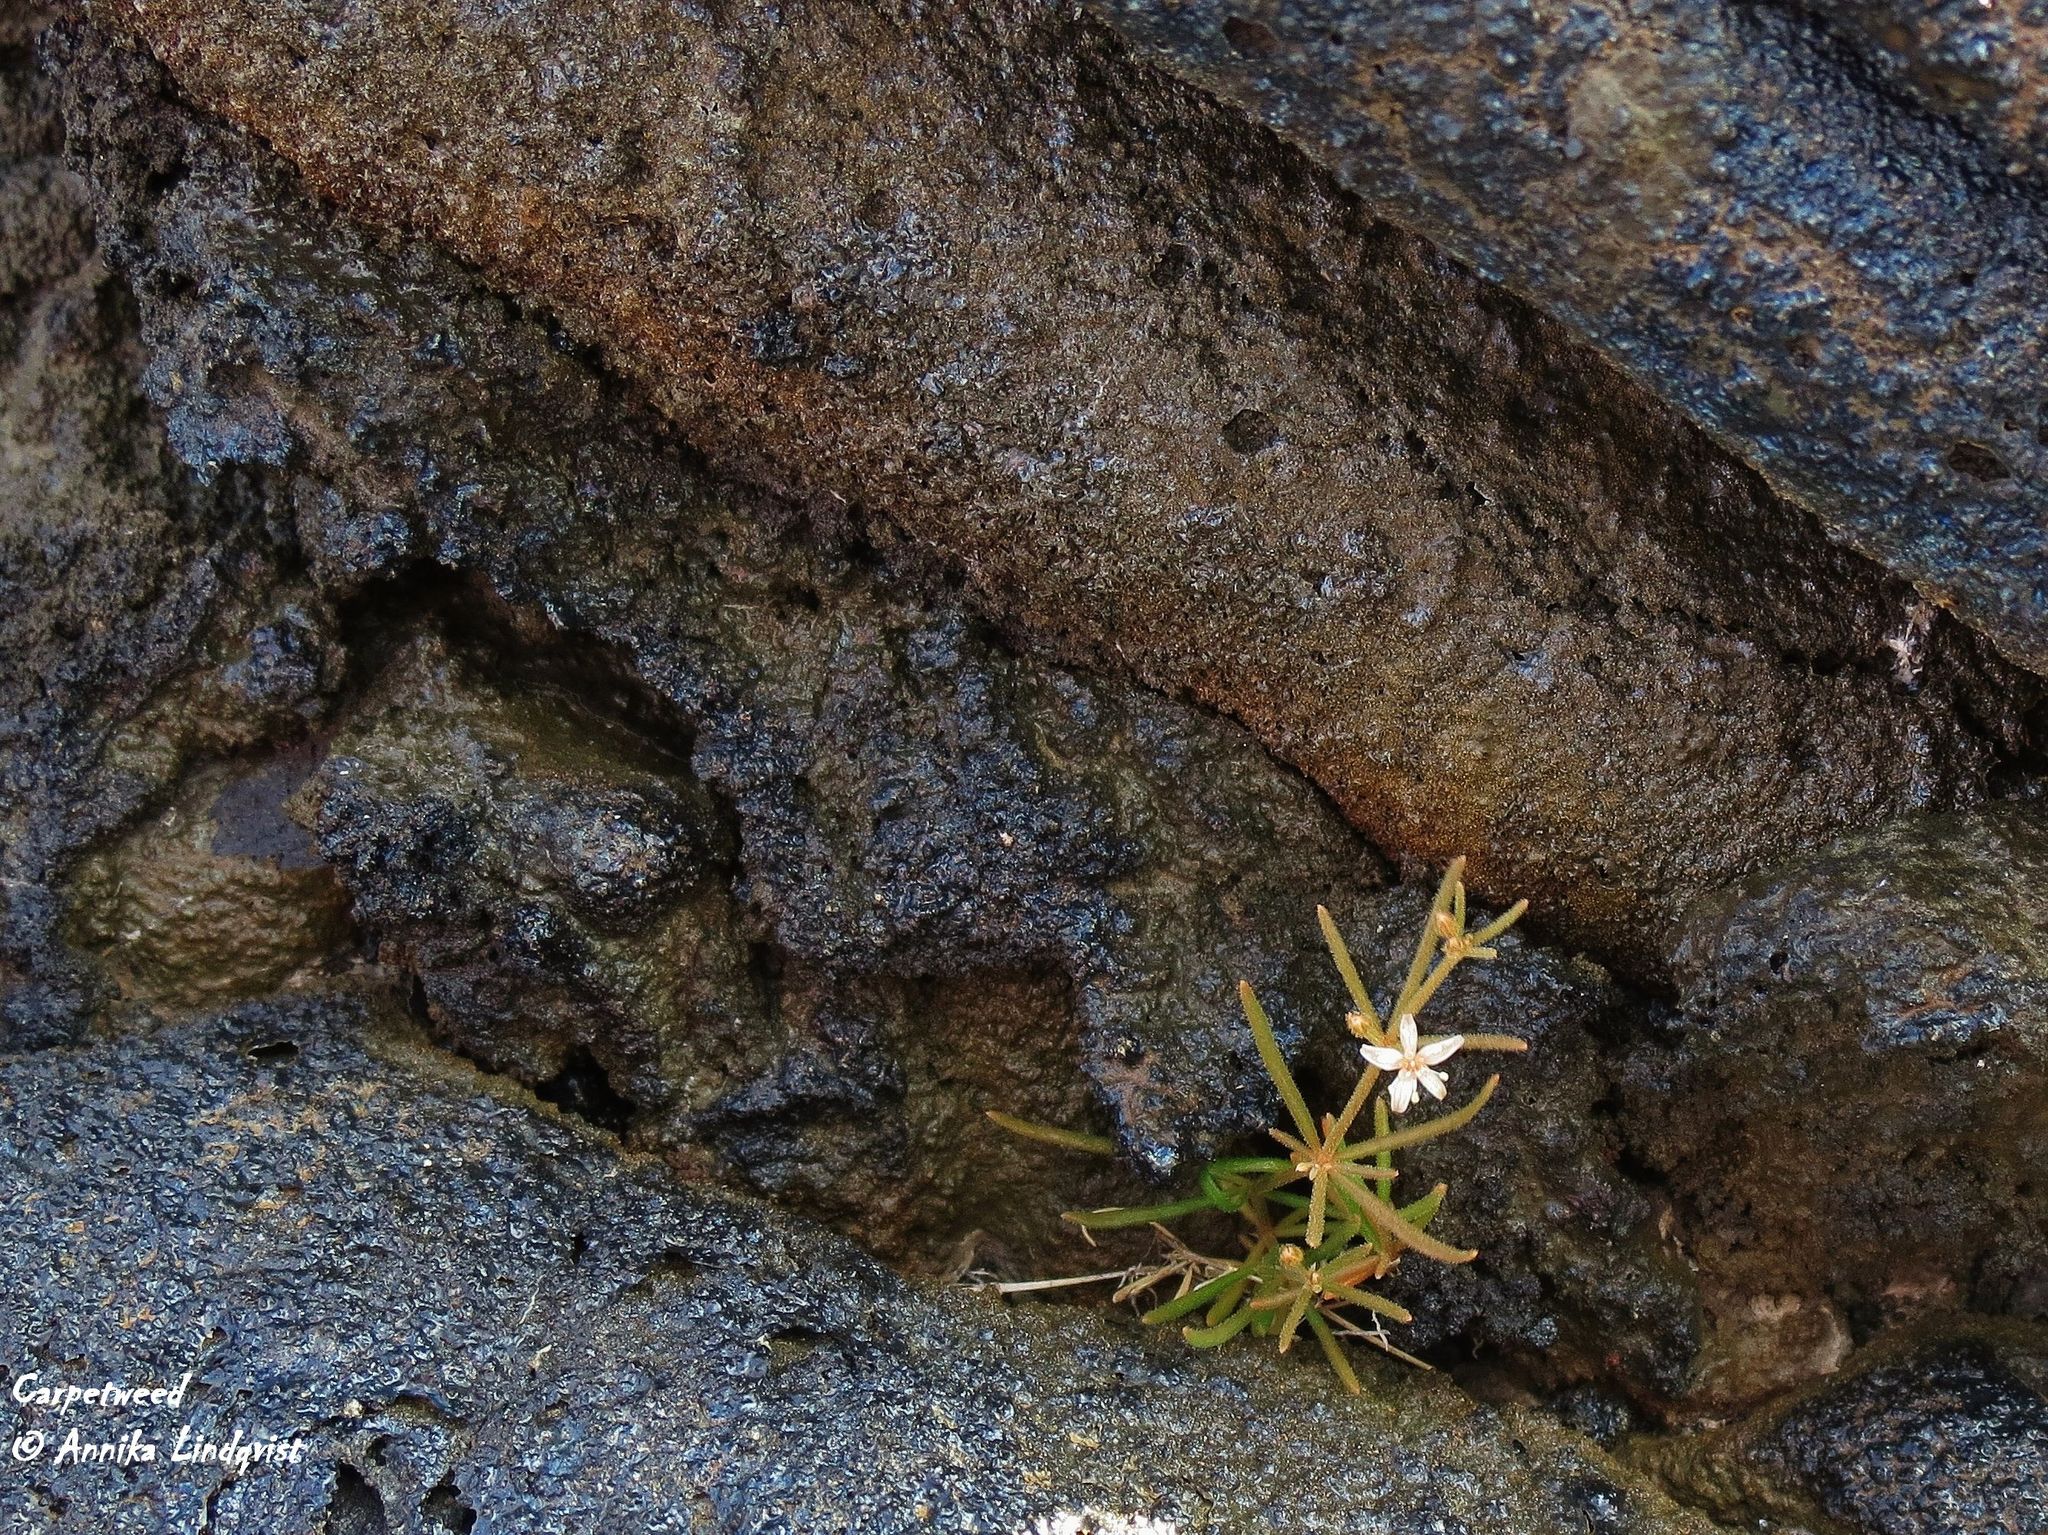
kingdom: Plantae
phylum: Tracheophyta
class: Magnoliopsida
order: Caryophyllales
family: Molluginaceae
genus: Mollugo
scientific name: Mollugo flavescens
